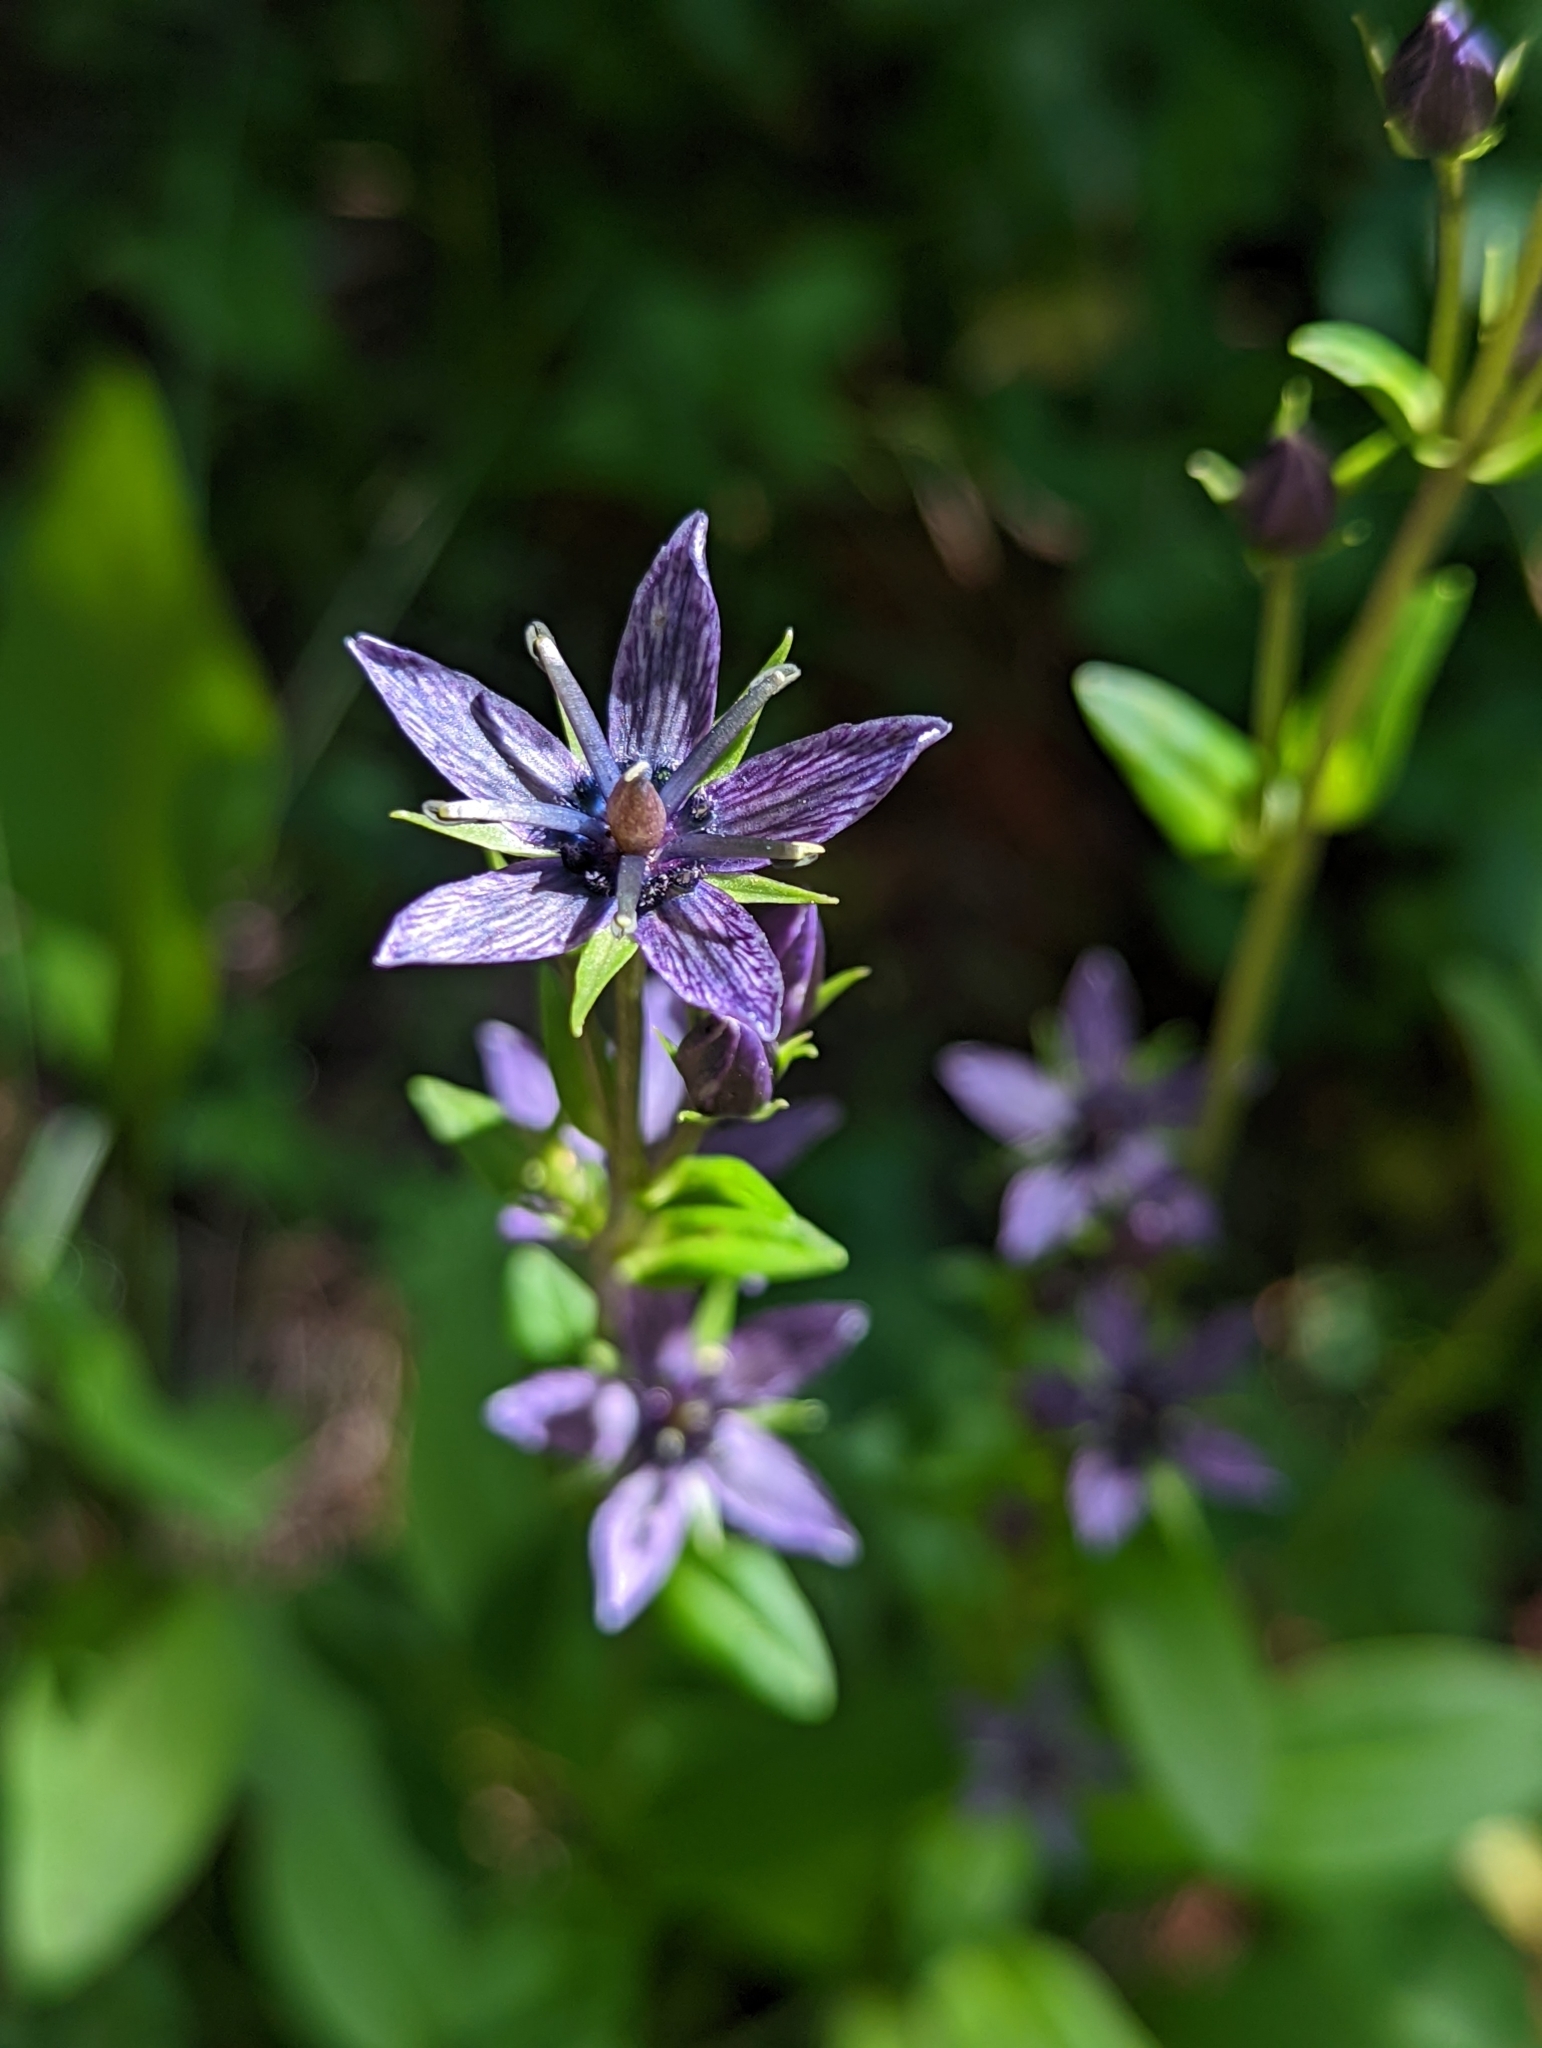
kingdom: Plantae
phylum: Tracheophyta
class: Magnoliopsida
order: Gentianales
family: Gentianaceae
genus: Swertia
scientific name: Swertia perennis
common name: Alpine bog swertia
